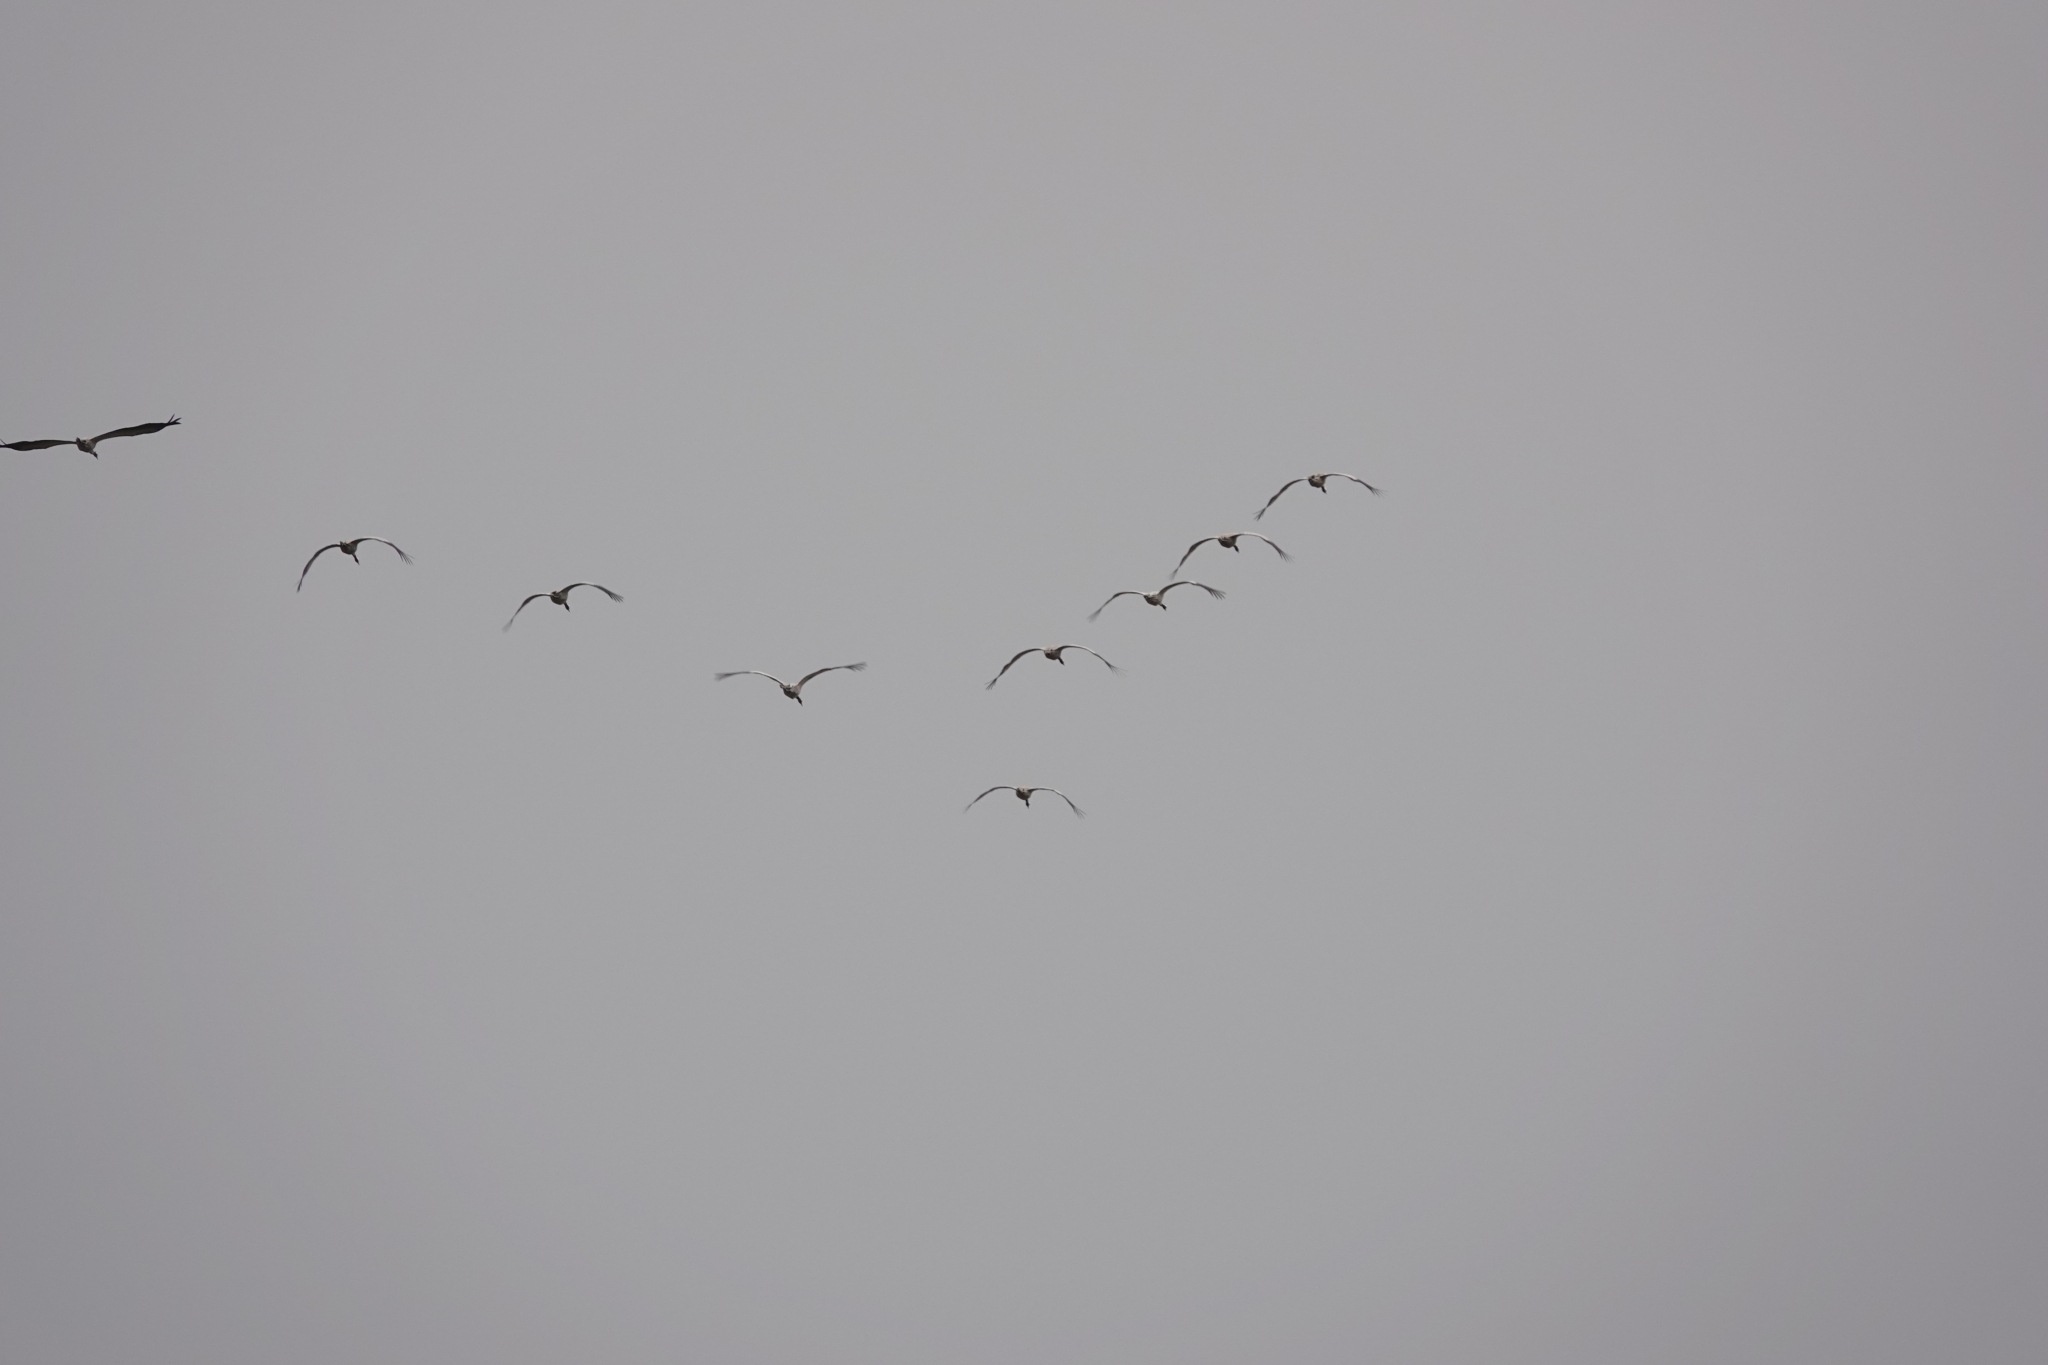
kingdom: Animalia
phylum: Chordata
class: Aves
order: Gruiformes
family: Gruidae
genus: Grus
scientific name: Grus grus
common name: Common crane
